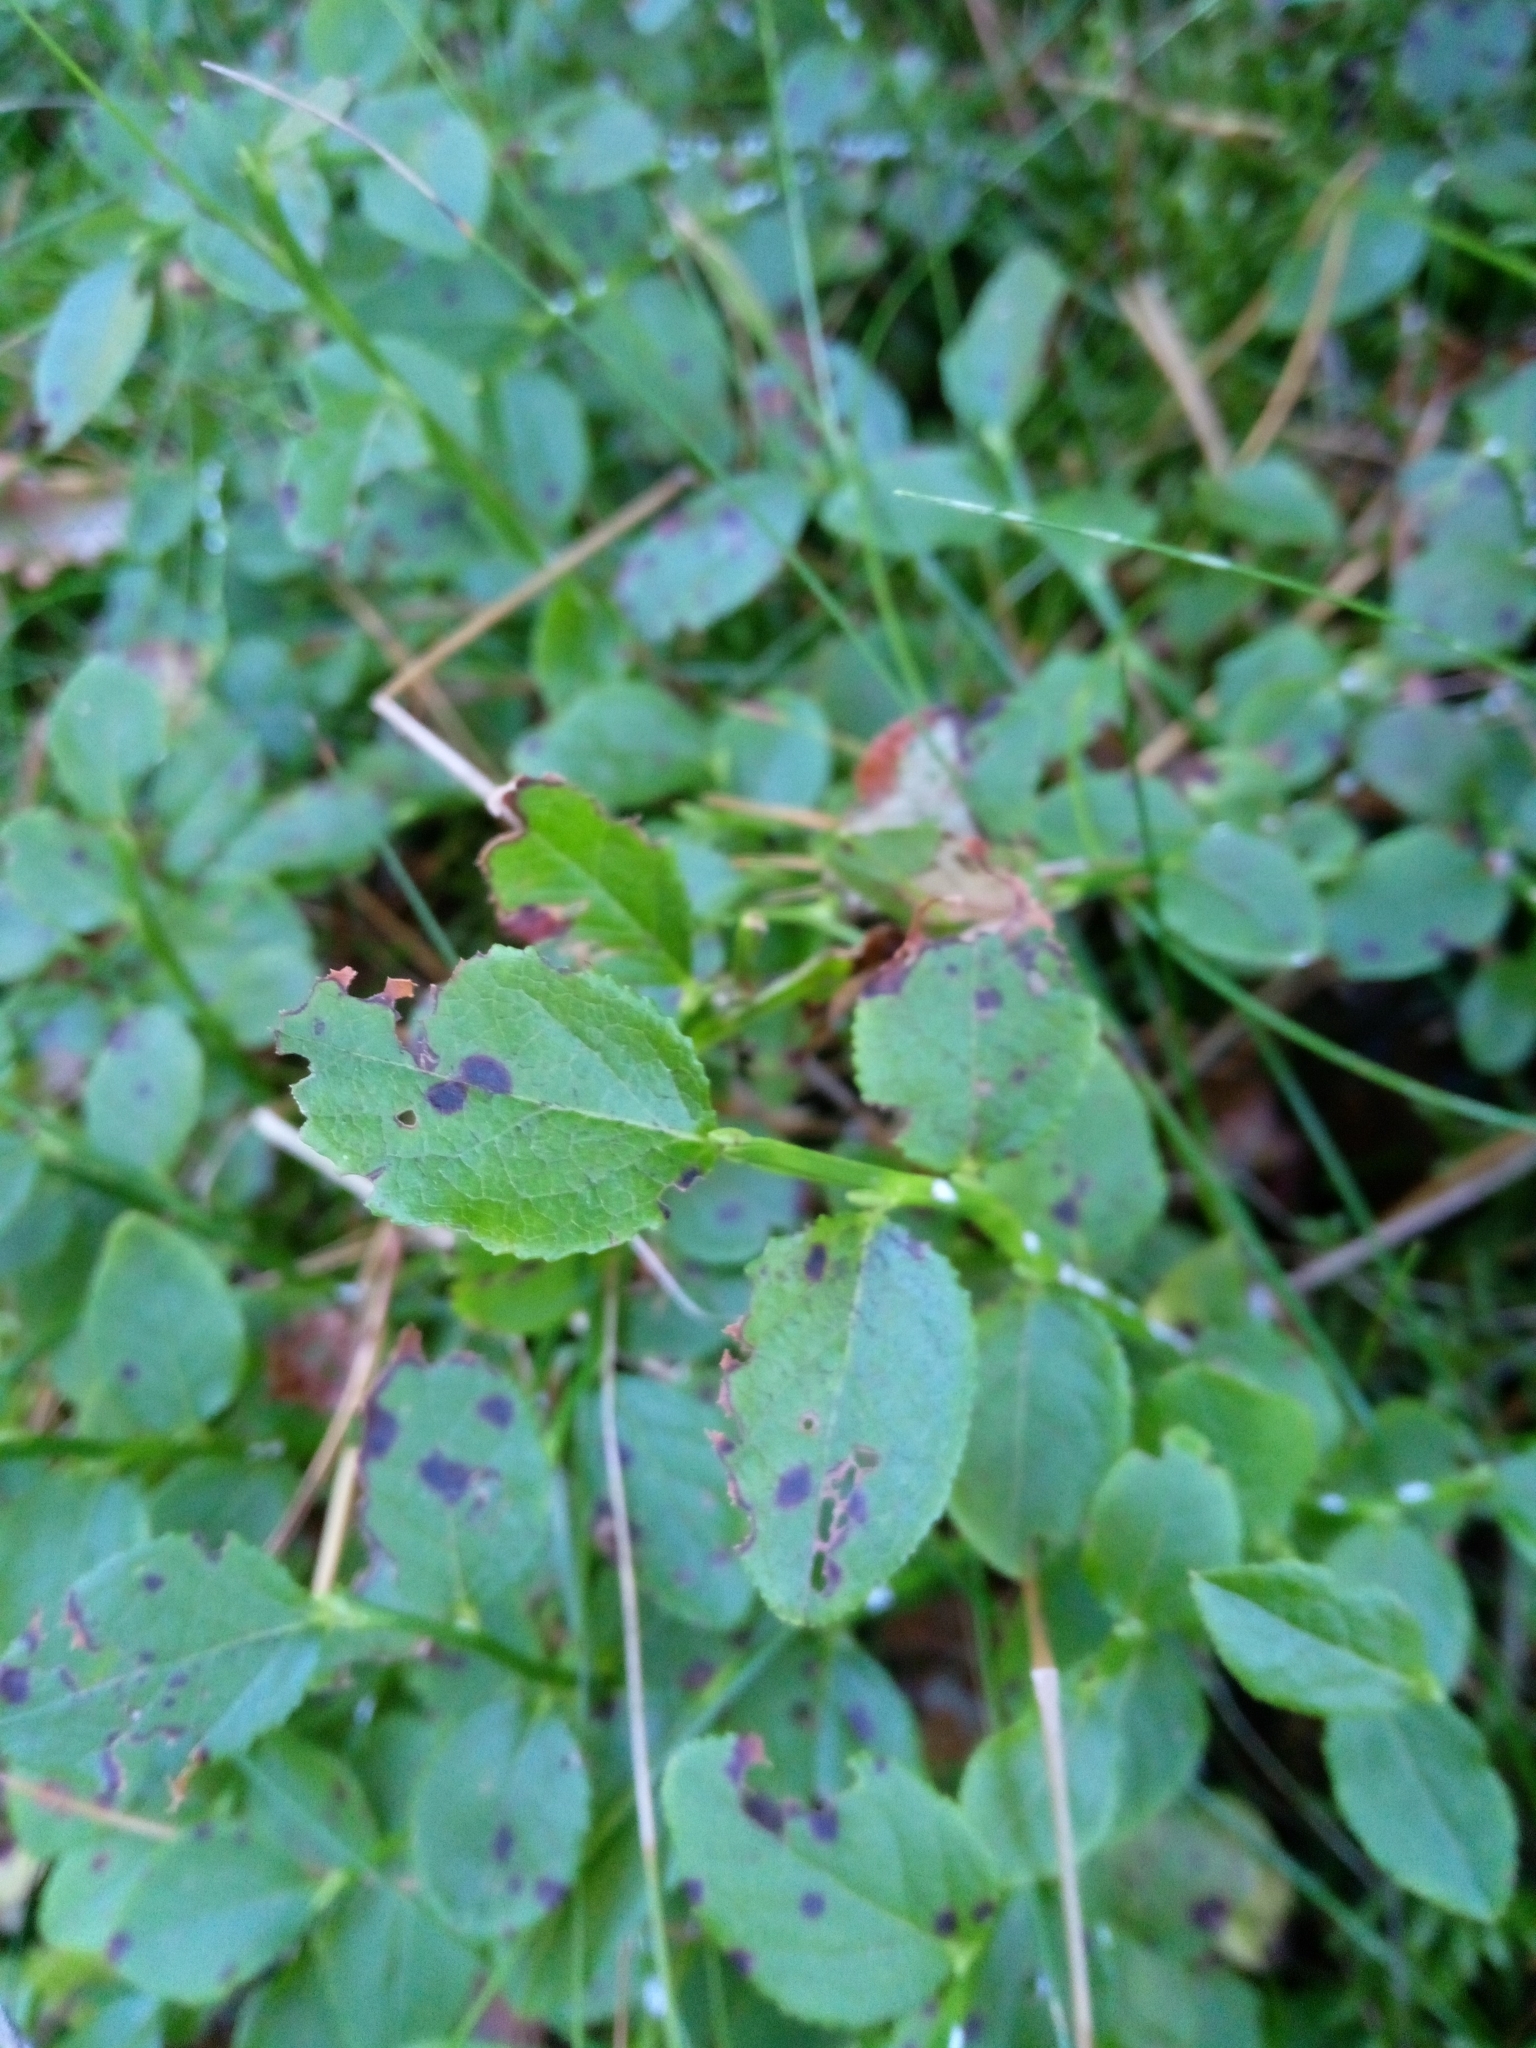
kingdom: Plantae
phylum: Tracheophyta
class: Magnoliopsida
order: Ericales
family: Ericaceae
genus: Vaccinium
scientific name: Vaccinium myrtillus
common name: Bilberry
